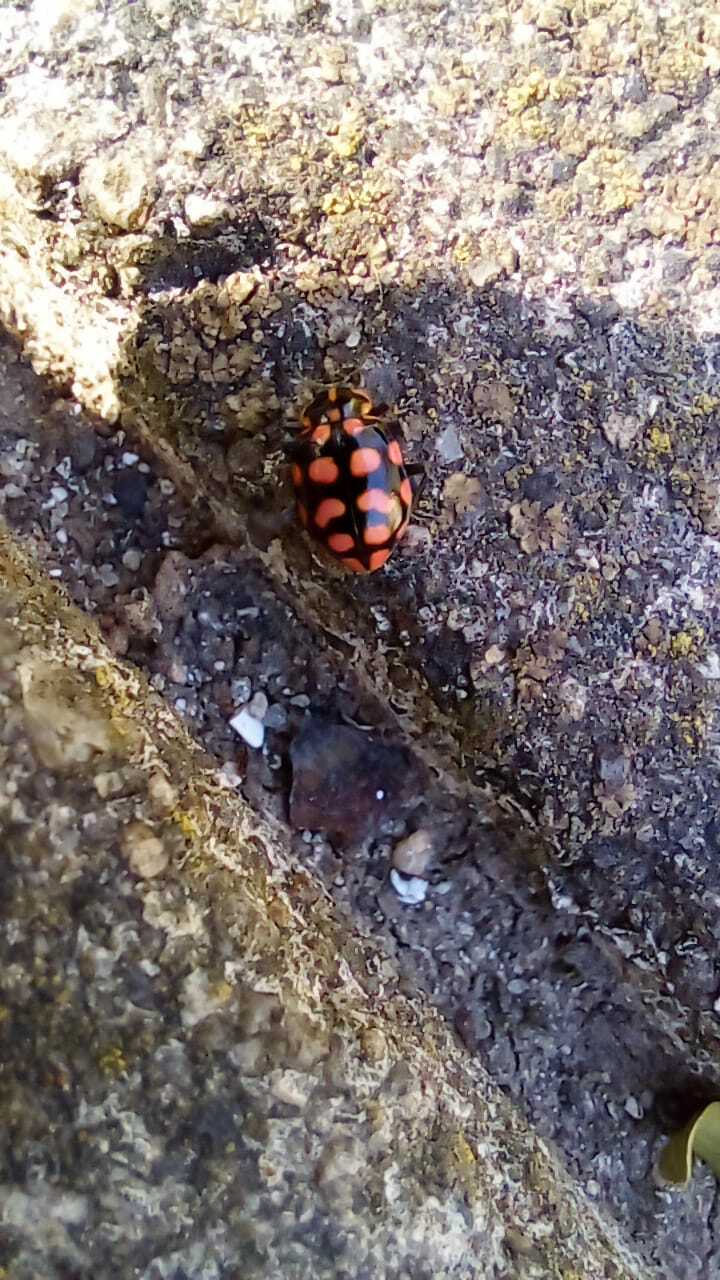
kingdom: Animalia
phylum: Arthropoda
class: Insecta
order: Coleoptera
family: Coccinellidae
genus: Coleomegilla
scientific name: Coleomegilla
